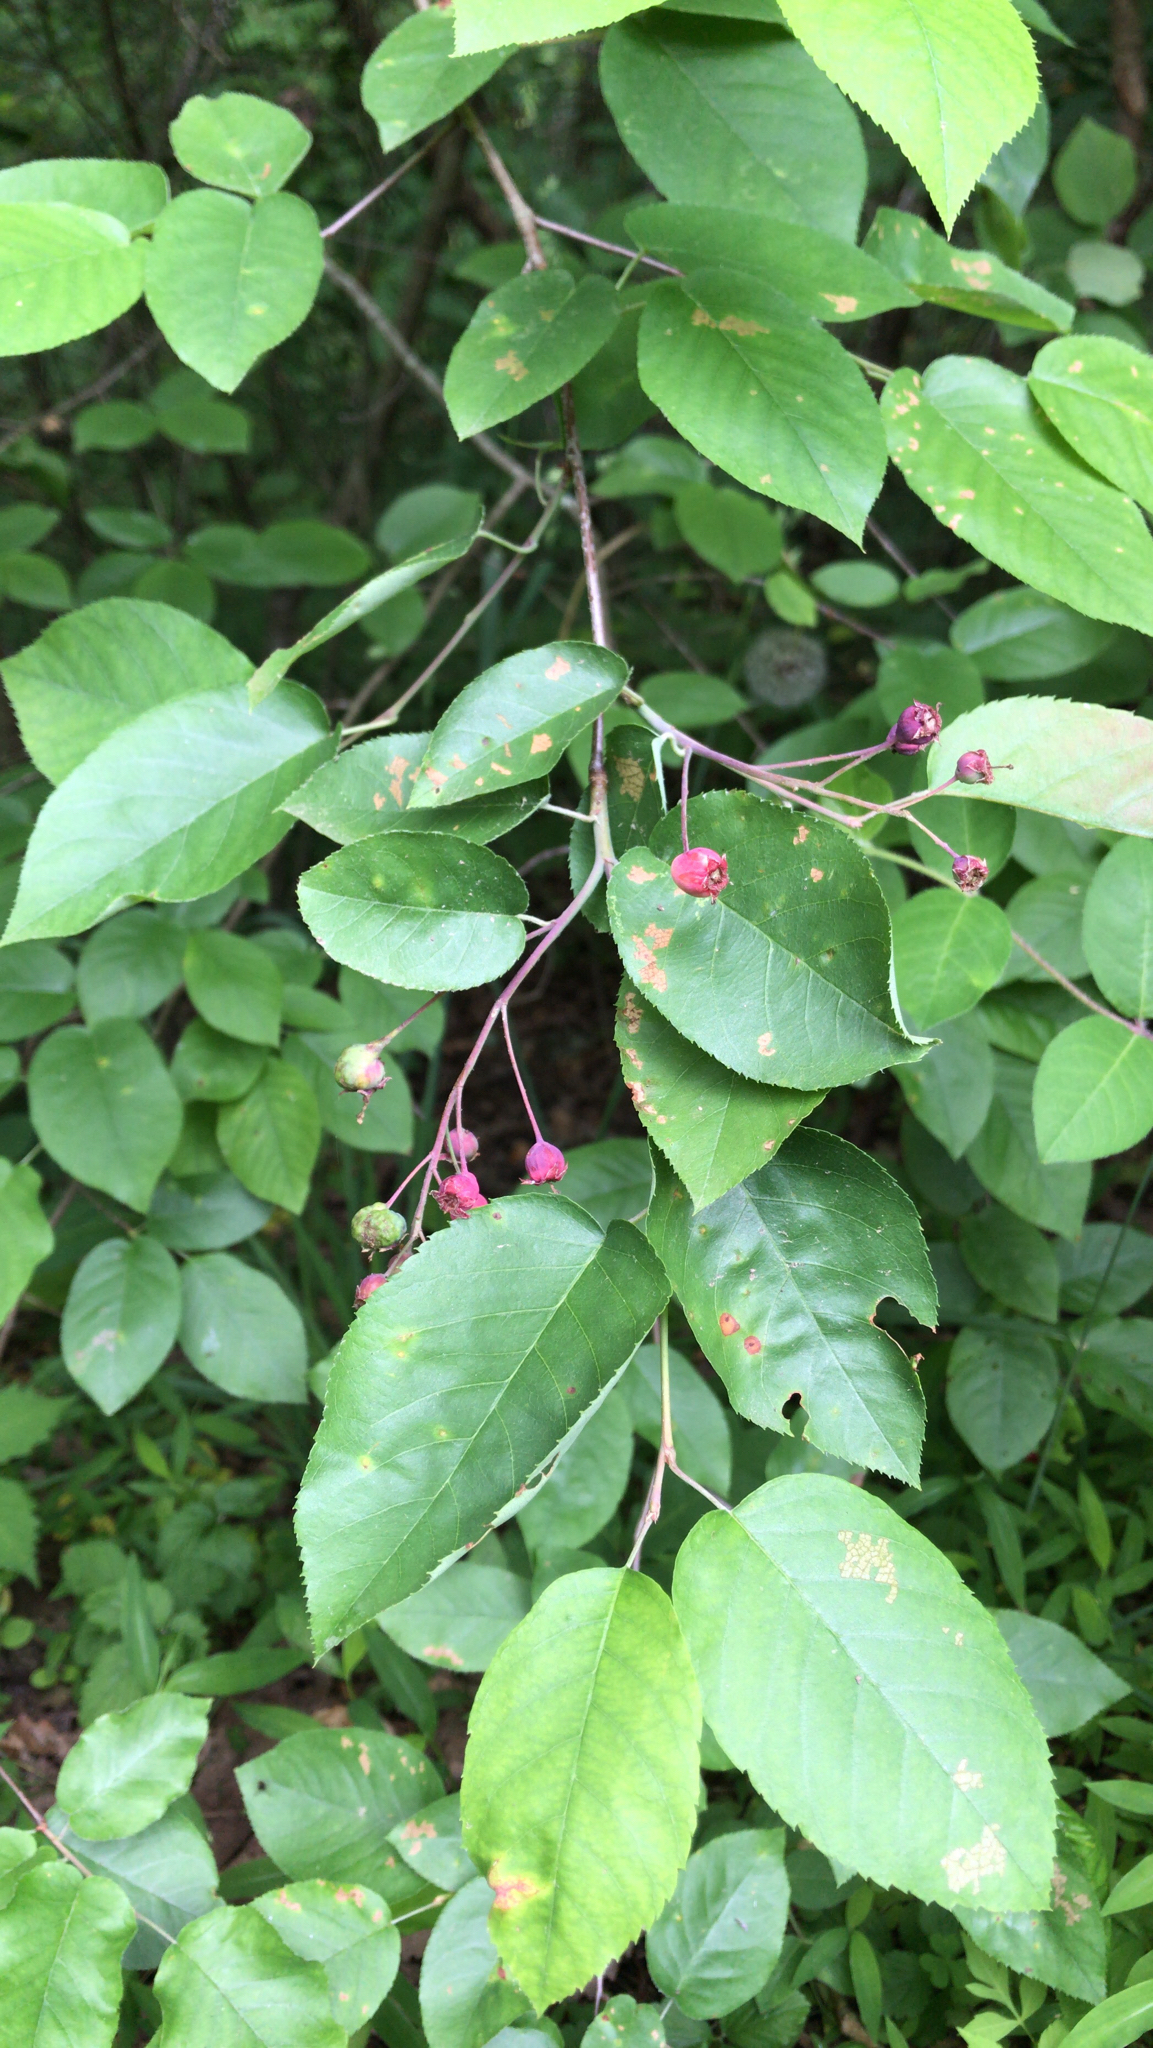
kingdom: Plantae
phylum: Tracheophyta
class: Magnoliopsida
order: Rosales
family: Rosaceae
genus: Amelanchier
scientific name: Amelanchier arborea
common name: Downy serviceberry
